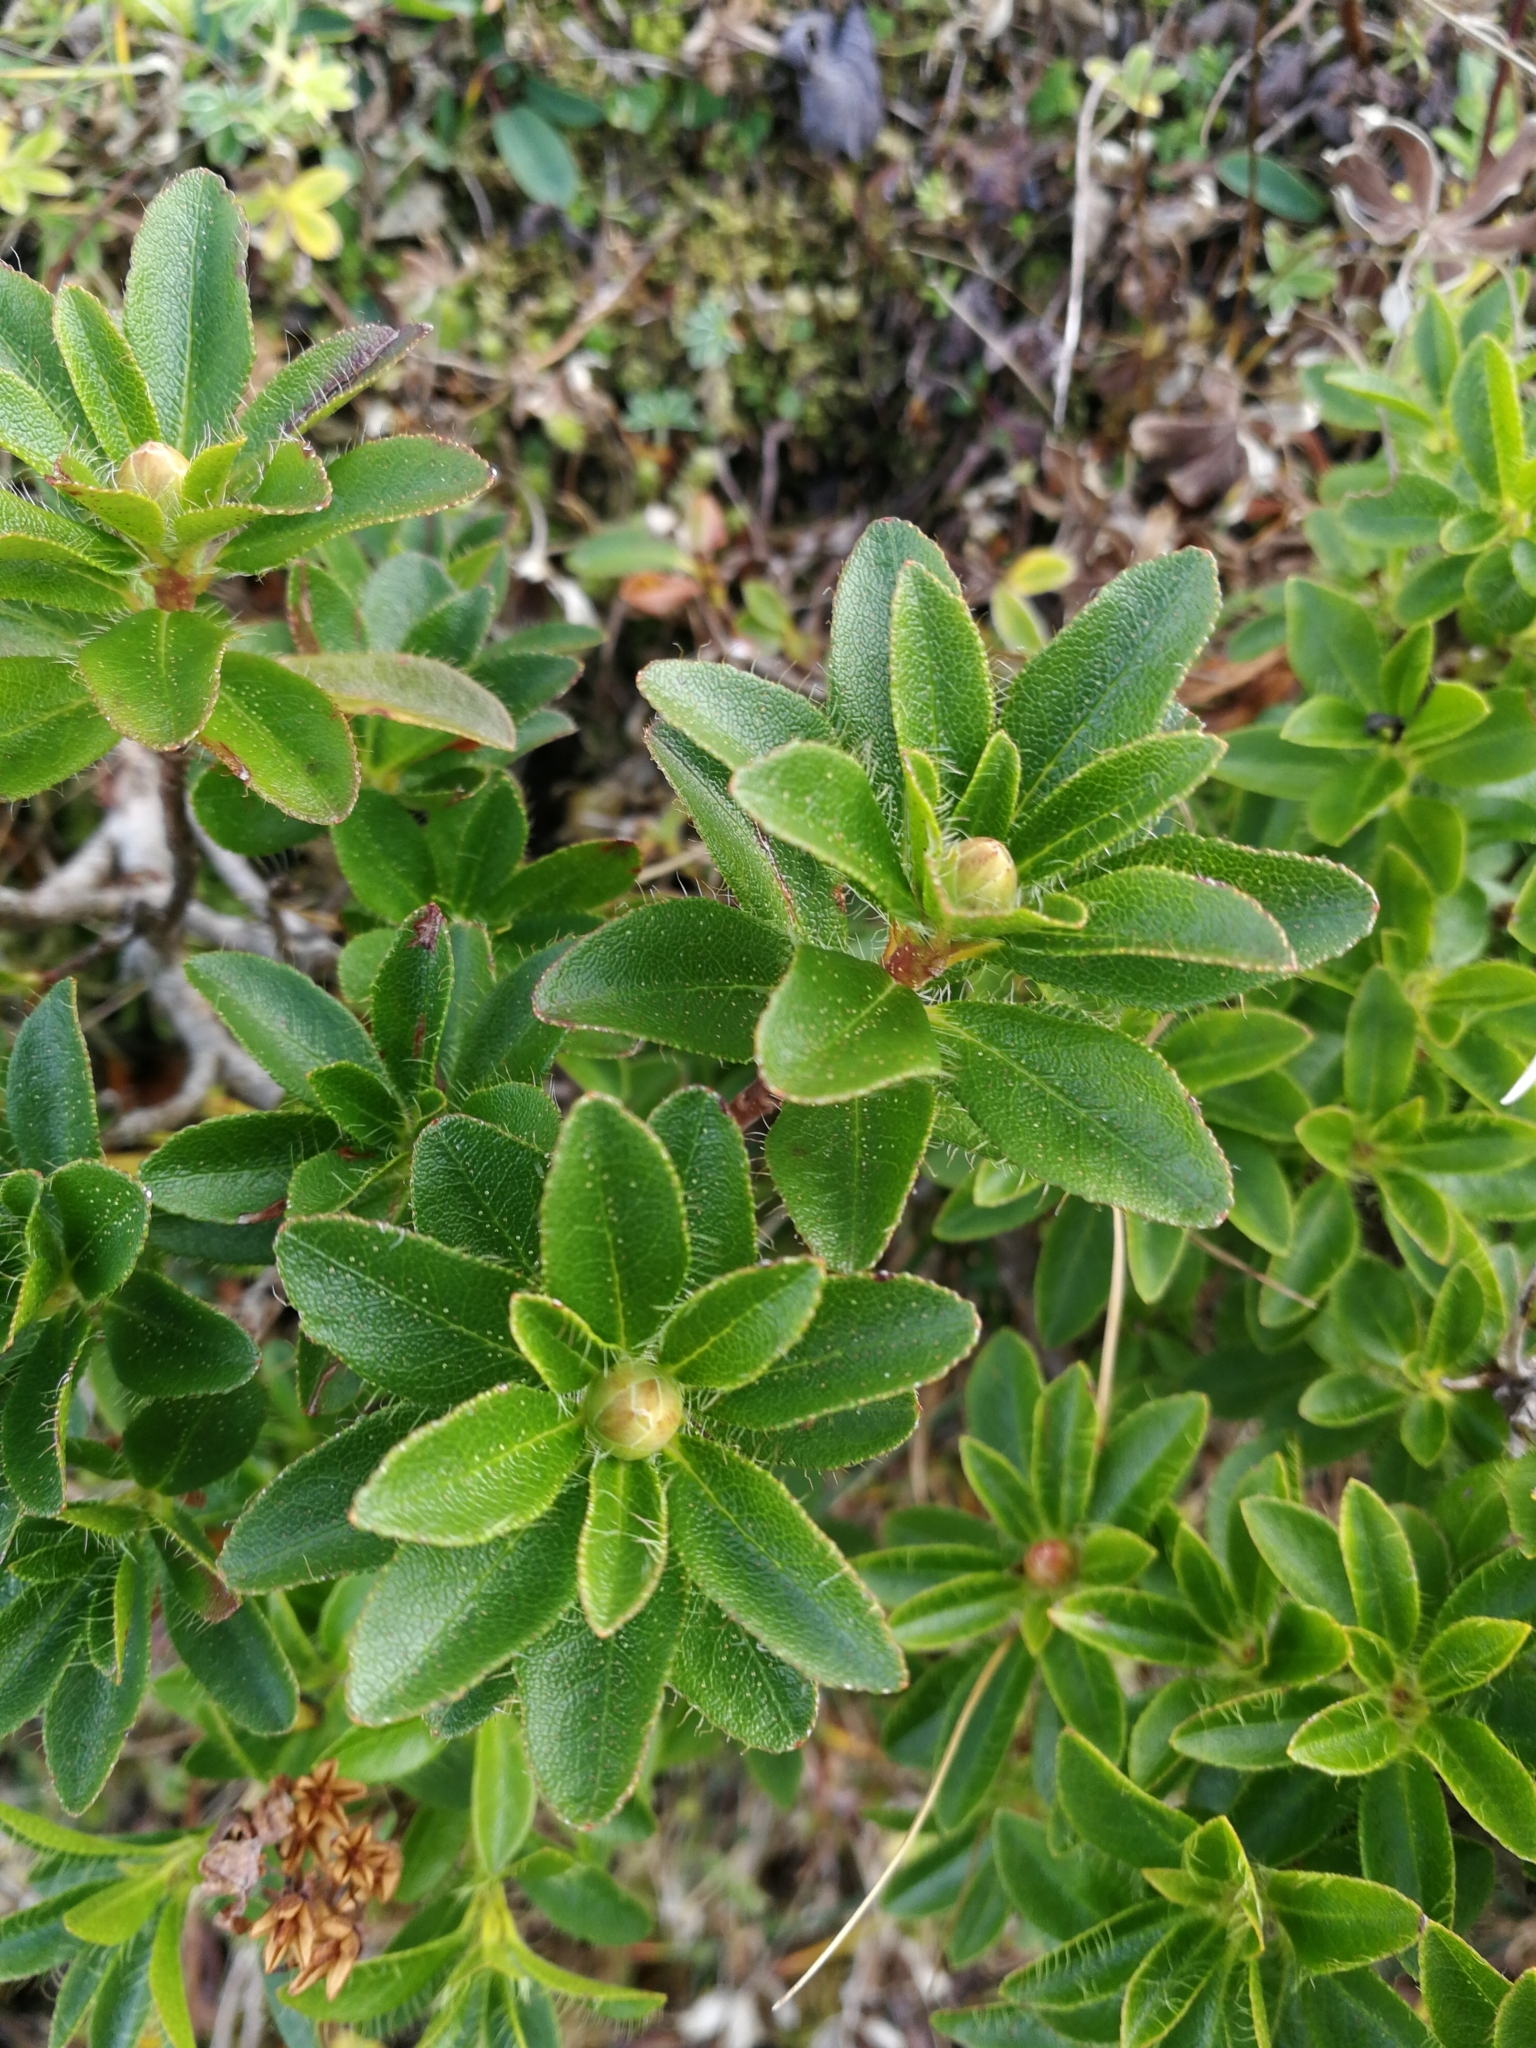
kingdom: Plantae
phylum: Tracheophyta
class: Magnoliopsida
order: Ericales
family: Ericaceae
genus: Rhododendron
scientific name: Rhododendron hirsutum
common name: Hairy alpenrose
